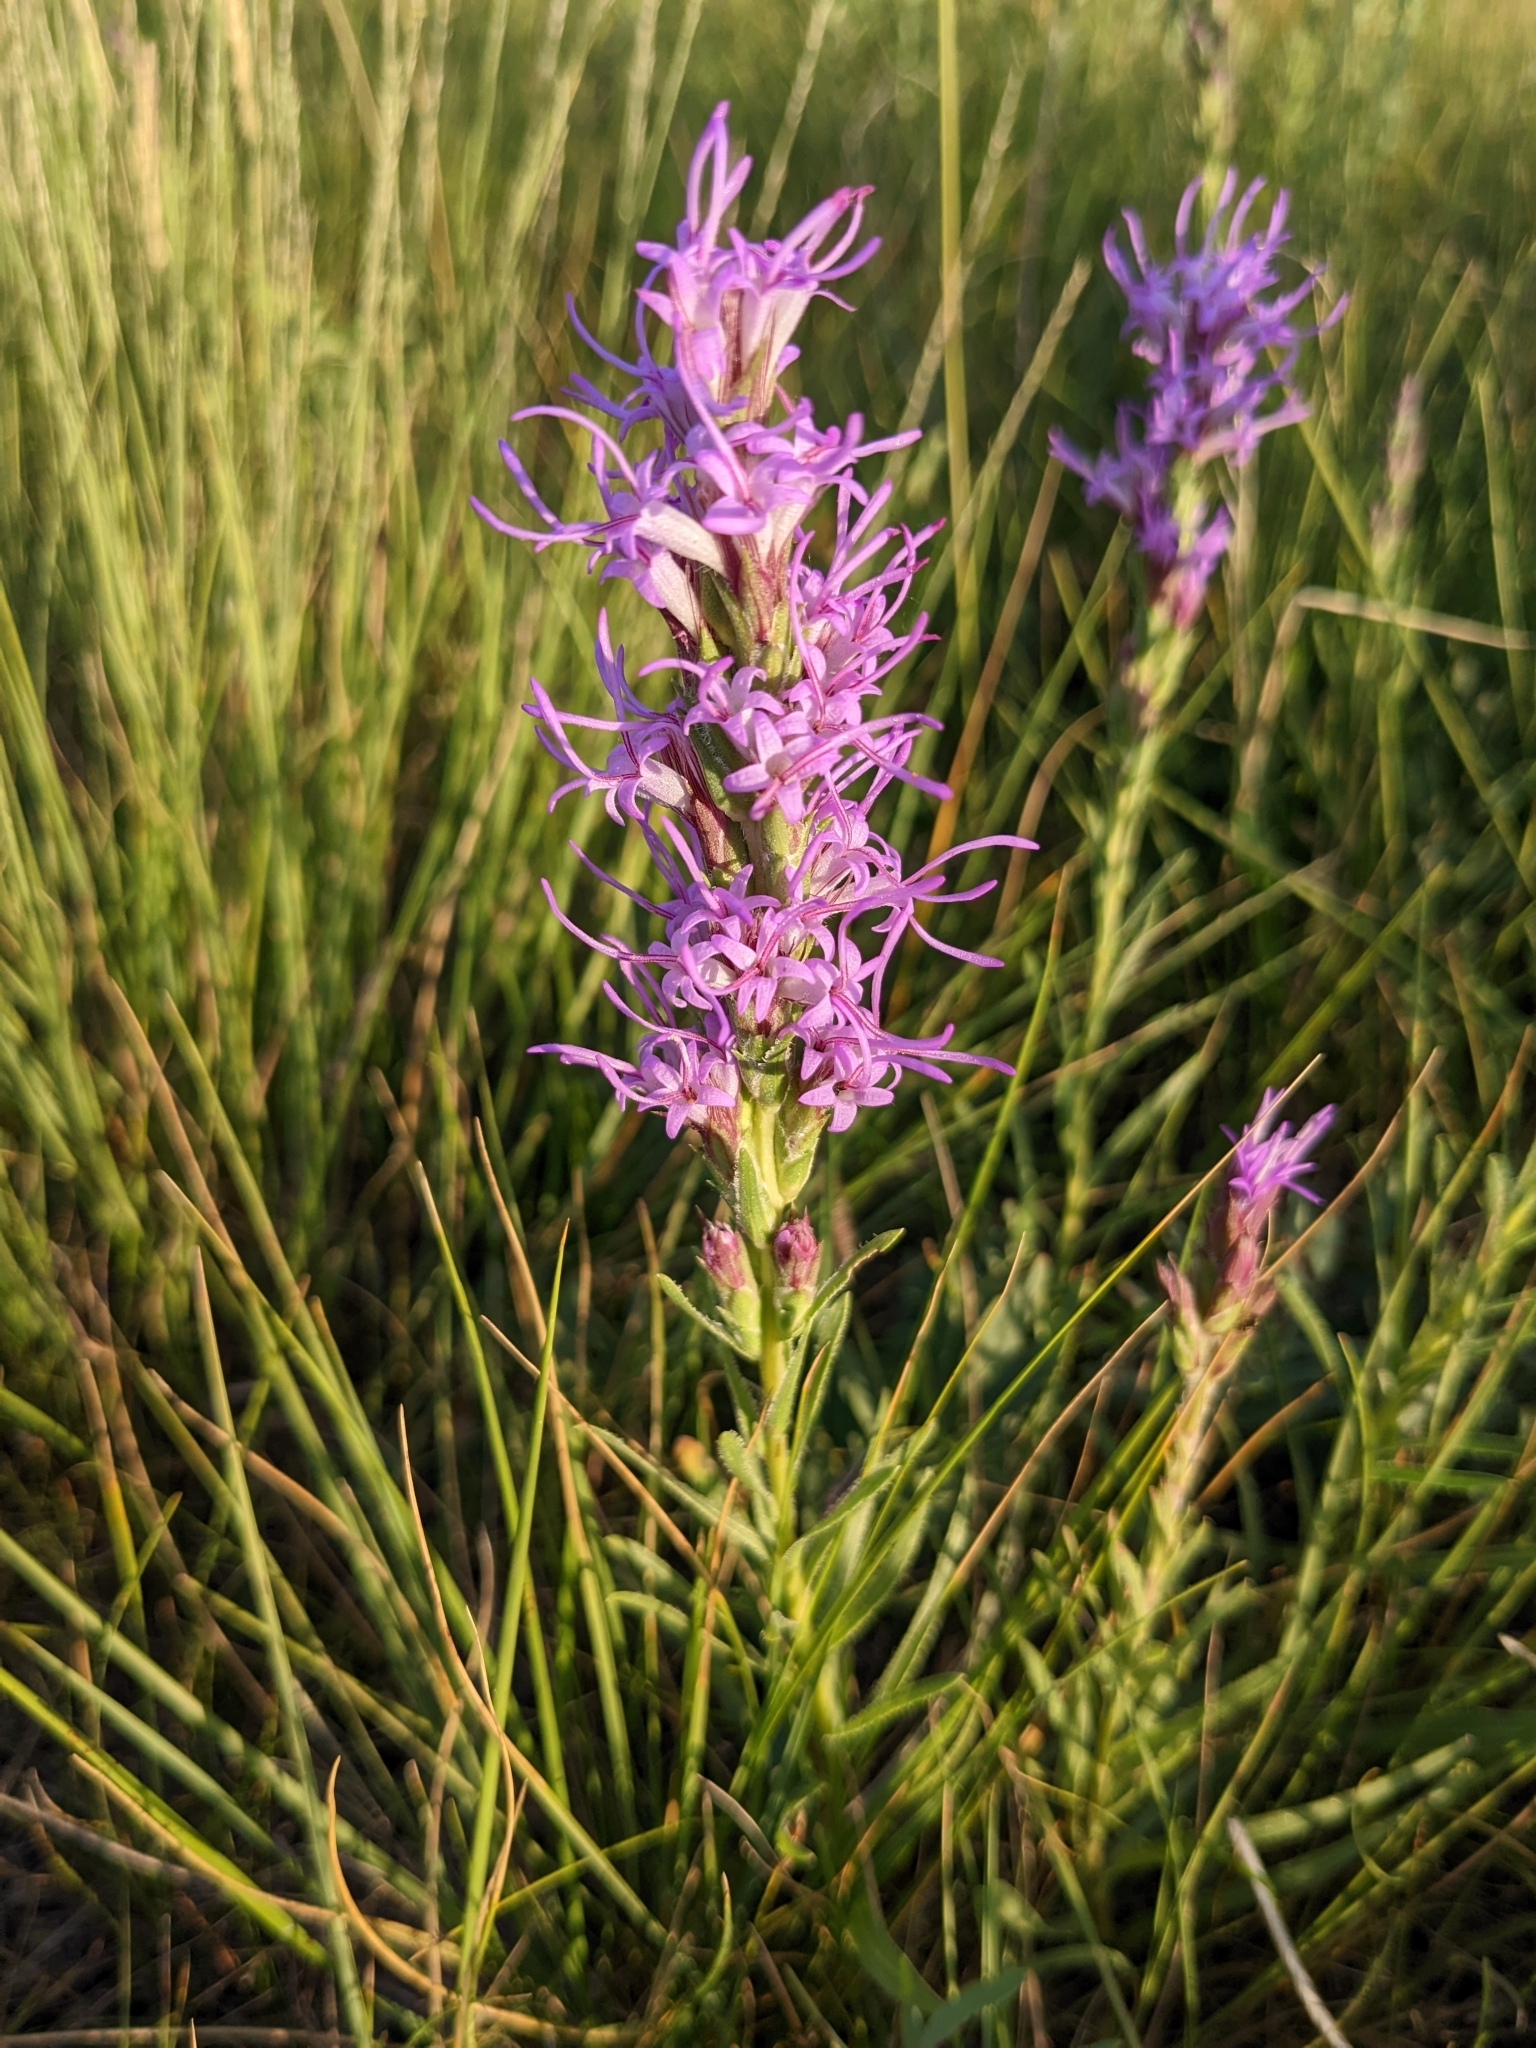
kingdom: Plantae
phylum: Tracheophyta
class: Magnoliopsida
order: Asterales
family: Asteraceae
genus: Liatris
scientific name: Liatris punctata
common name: Dotted gayfeather
